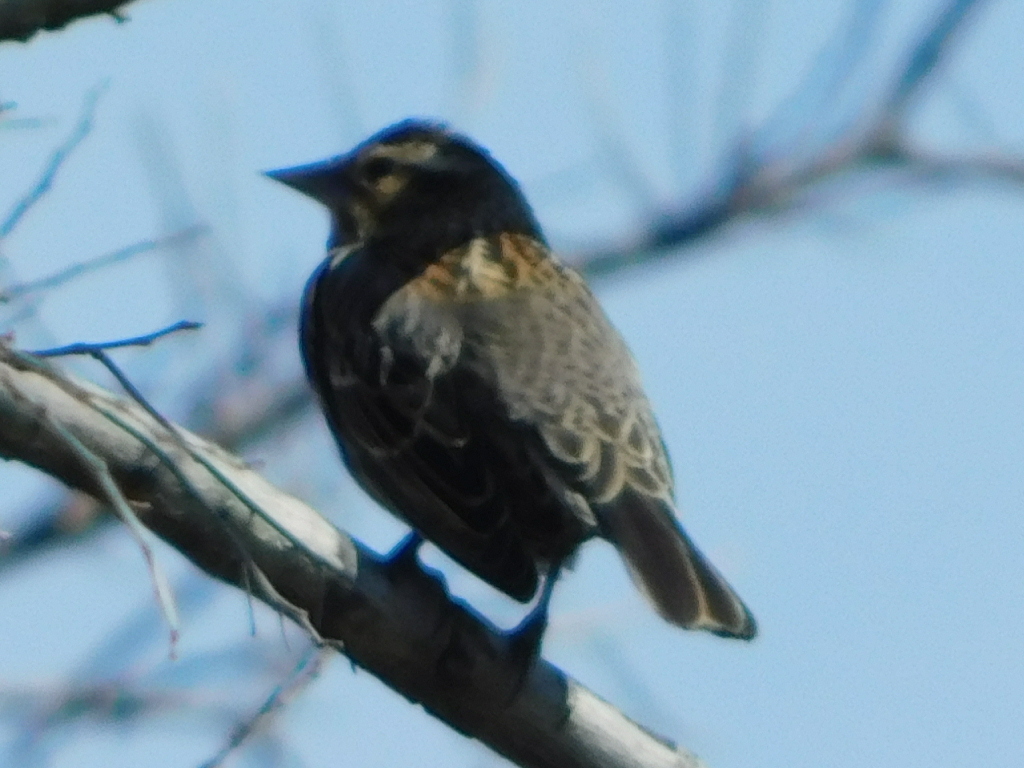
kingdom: Animalia
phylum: Chordata
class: Aves
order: Passeriformes
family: Icteridae
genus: Agelaius
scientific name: Agelaius phoeniceus
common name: Red-winged blackbird
